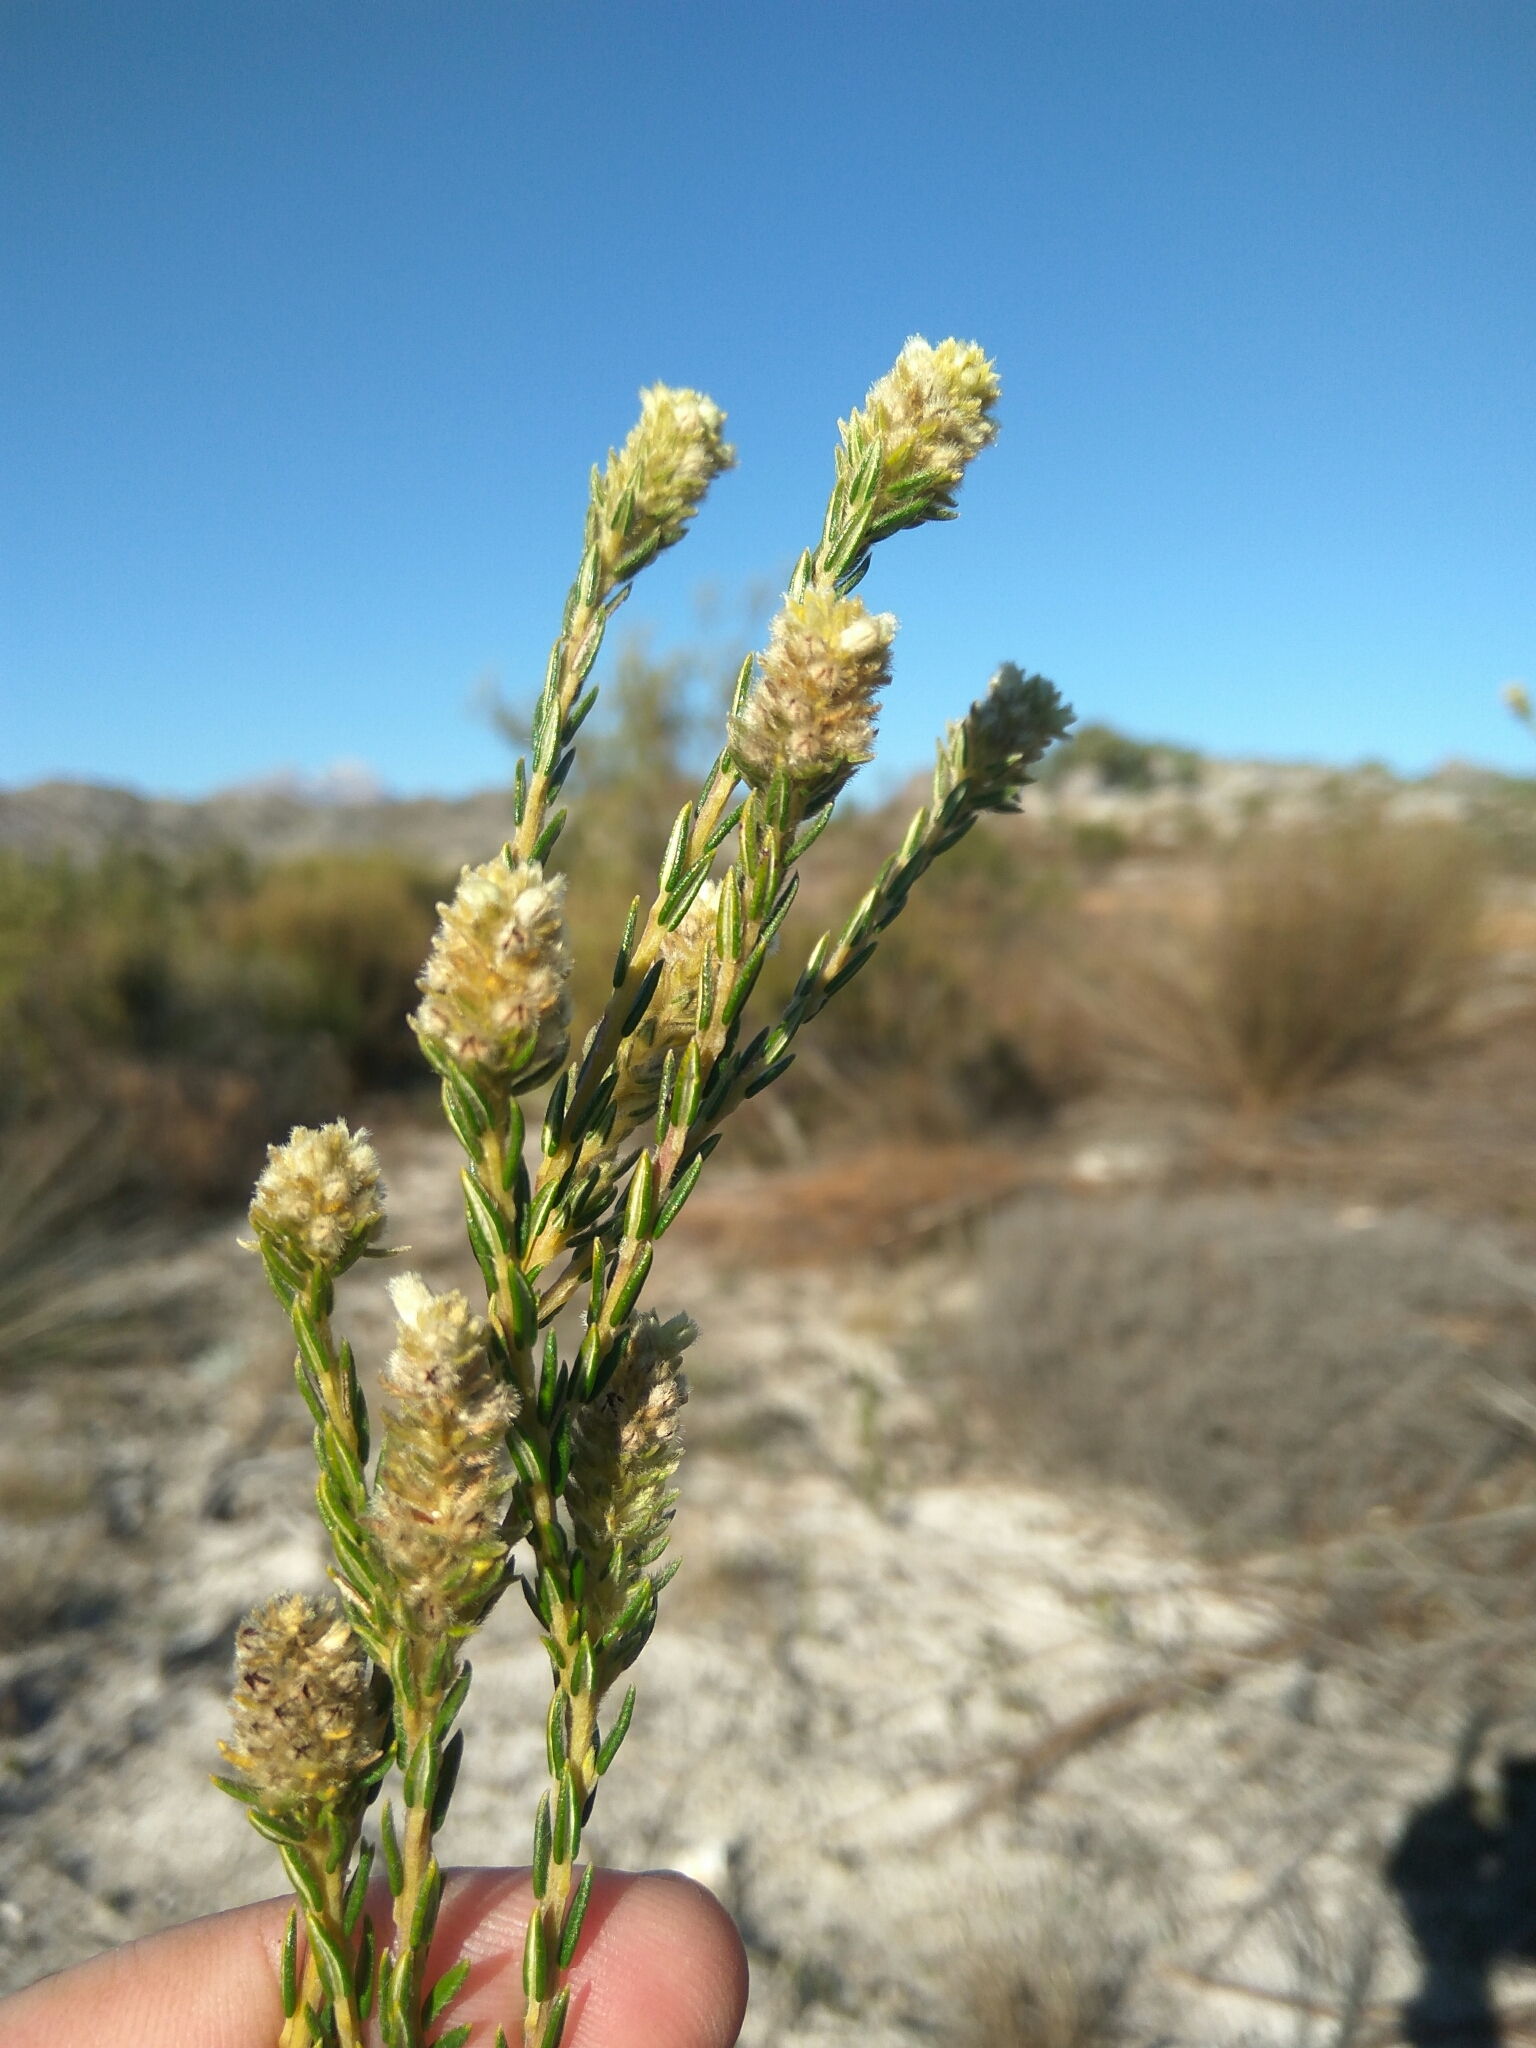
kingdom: Plantae
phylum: Tracheophyta
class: Magnoliopsida
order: Rosales
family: Rhamnaceae
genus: Phylica
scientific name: Phylica excelsa
